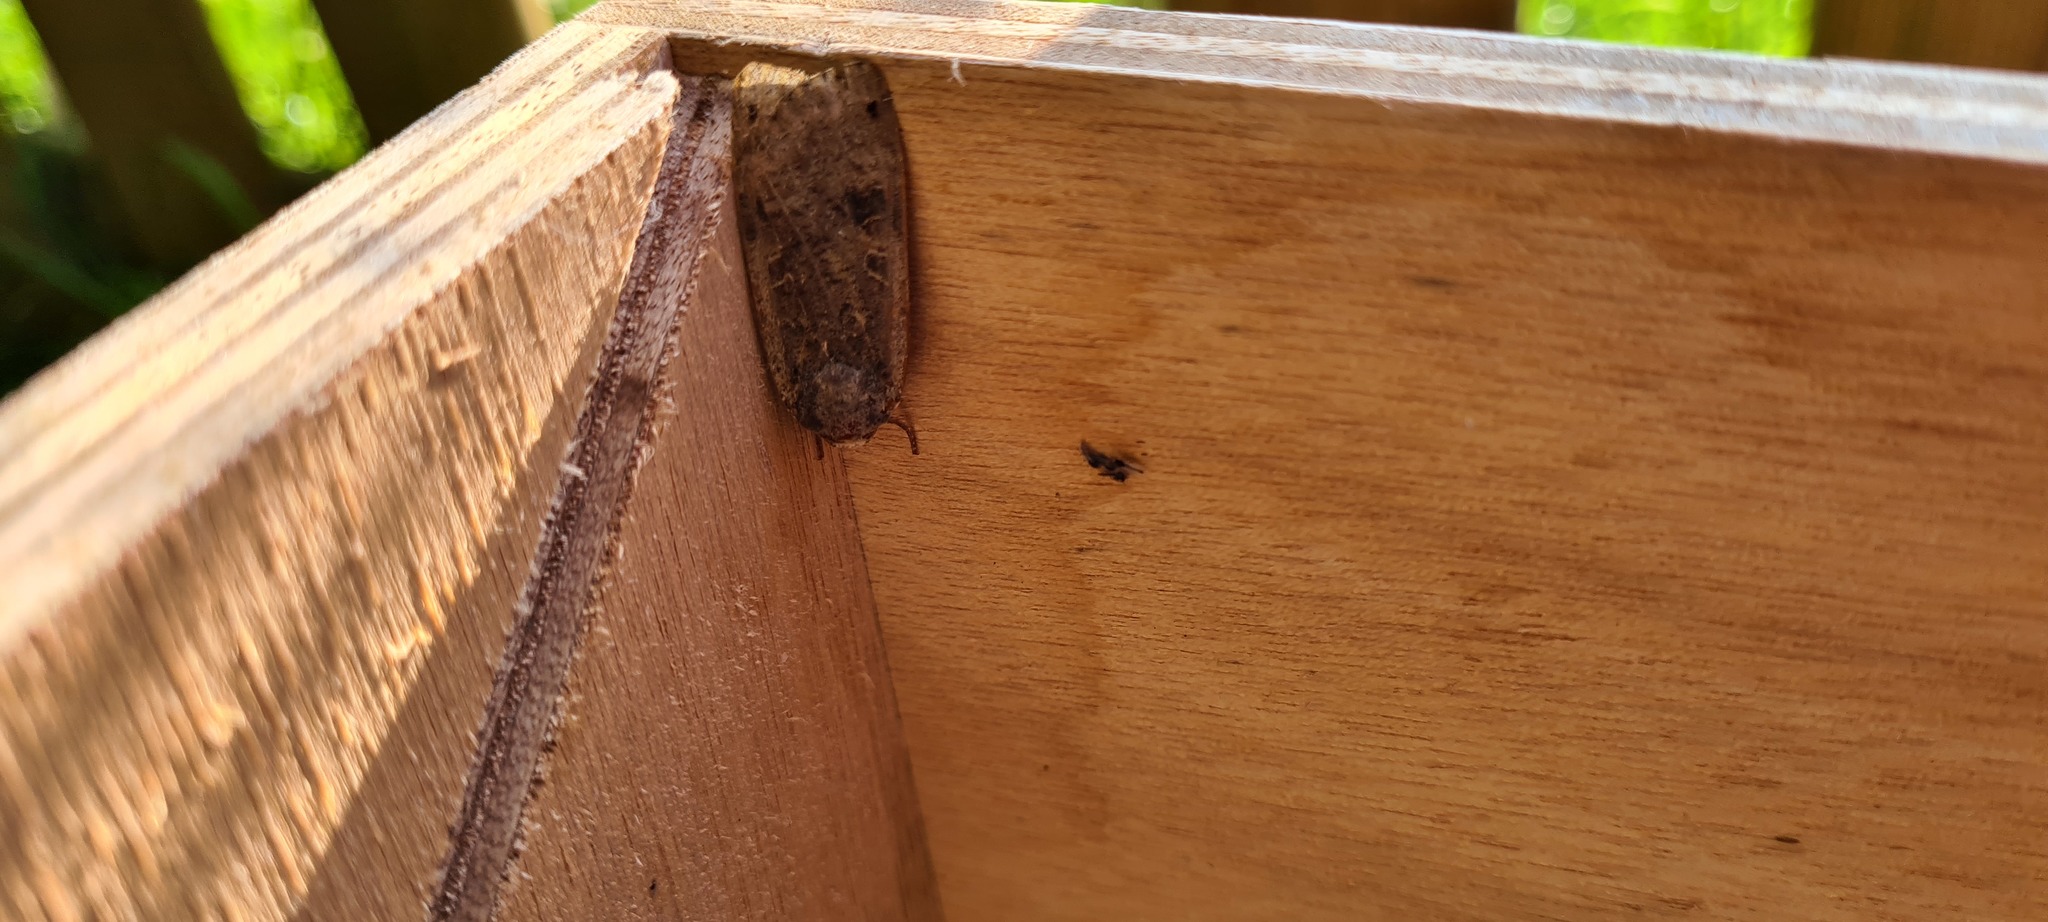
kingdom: Animalia
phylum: Arthropoda
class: Insecta
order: Lepidoptera
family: Noctuidae
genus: Noctua
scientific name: Noctua pronuba
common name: Large yellow underwing
